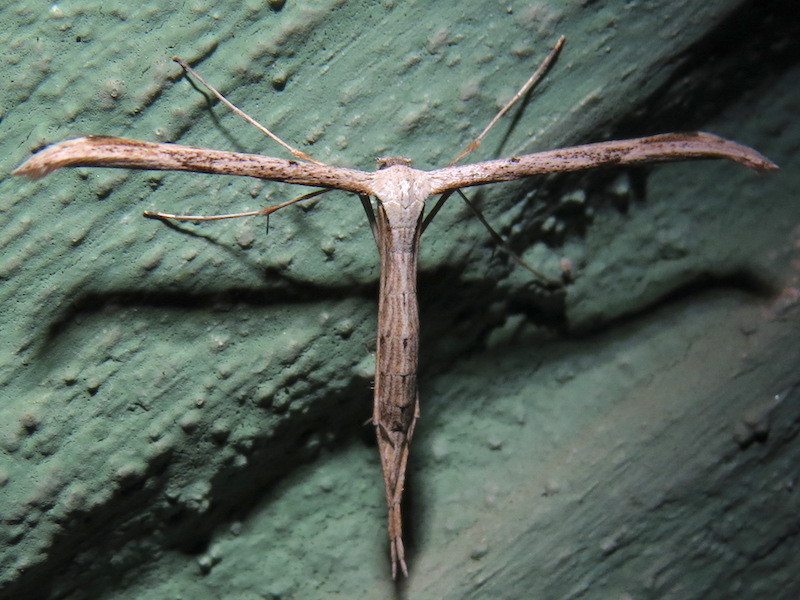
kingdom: Animalia
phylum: Arthropoda
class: Insecta
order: Lepidoptera
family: Pterophoridae
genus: Emmelina
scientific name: Emmelina monodactyla
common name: Common plume
